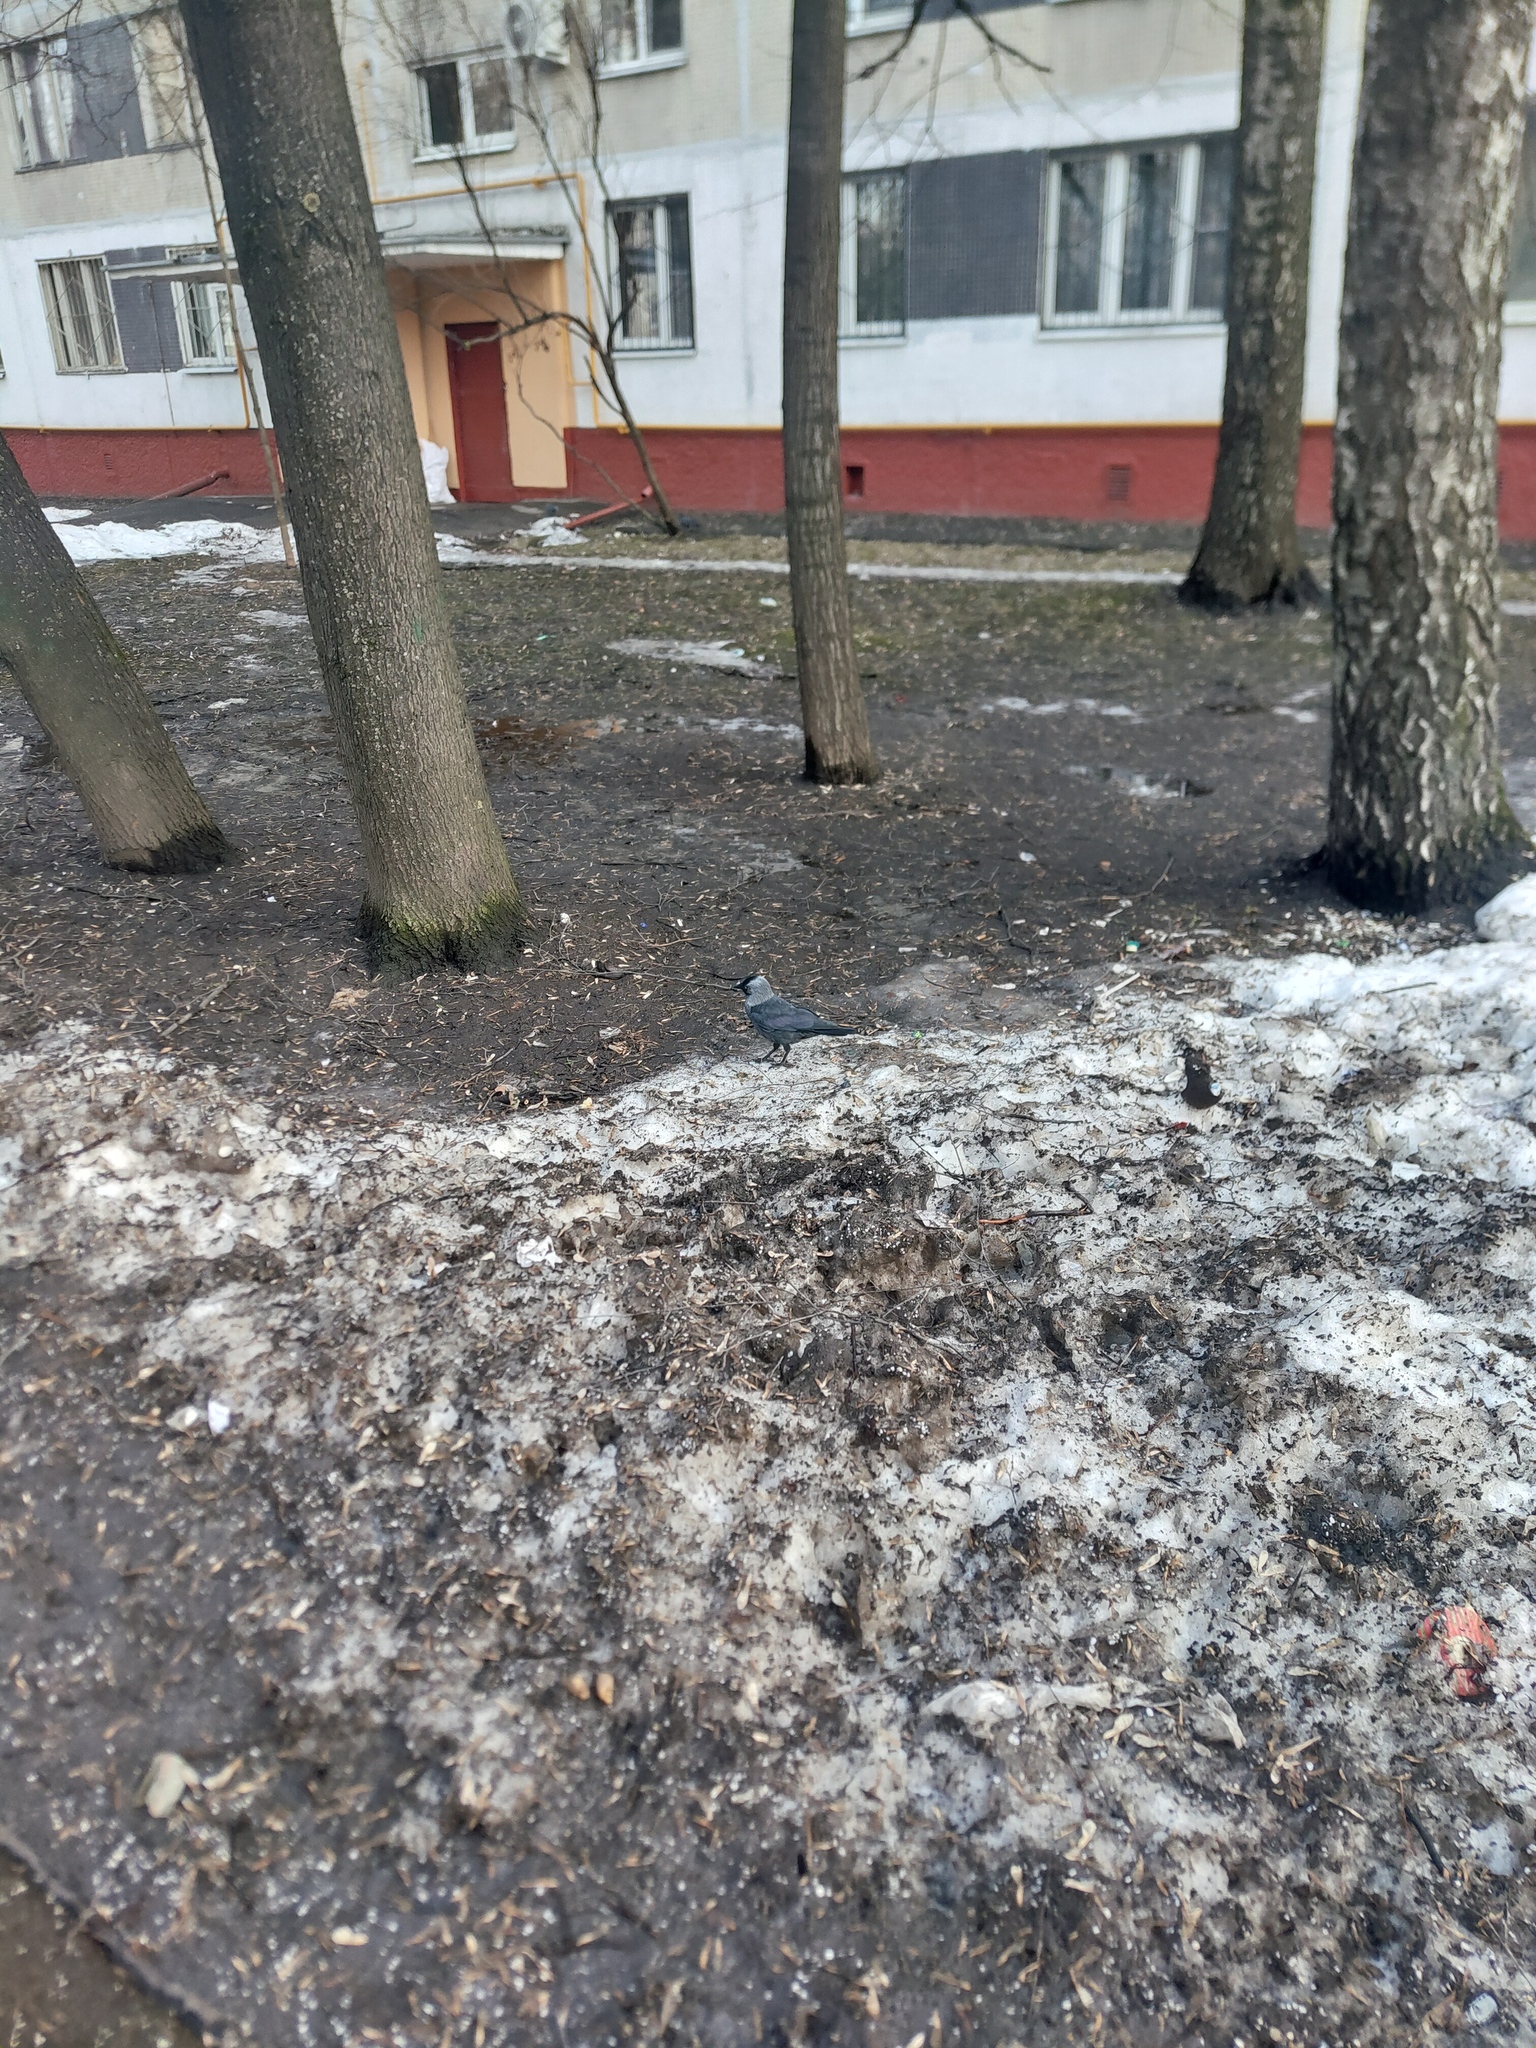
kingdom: Animalia
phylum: Chordata
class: Aves
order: Passeriformes
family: Corvidae
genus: Coloeus
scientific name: Coloeus monedula
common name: Western jackdaw
